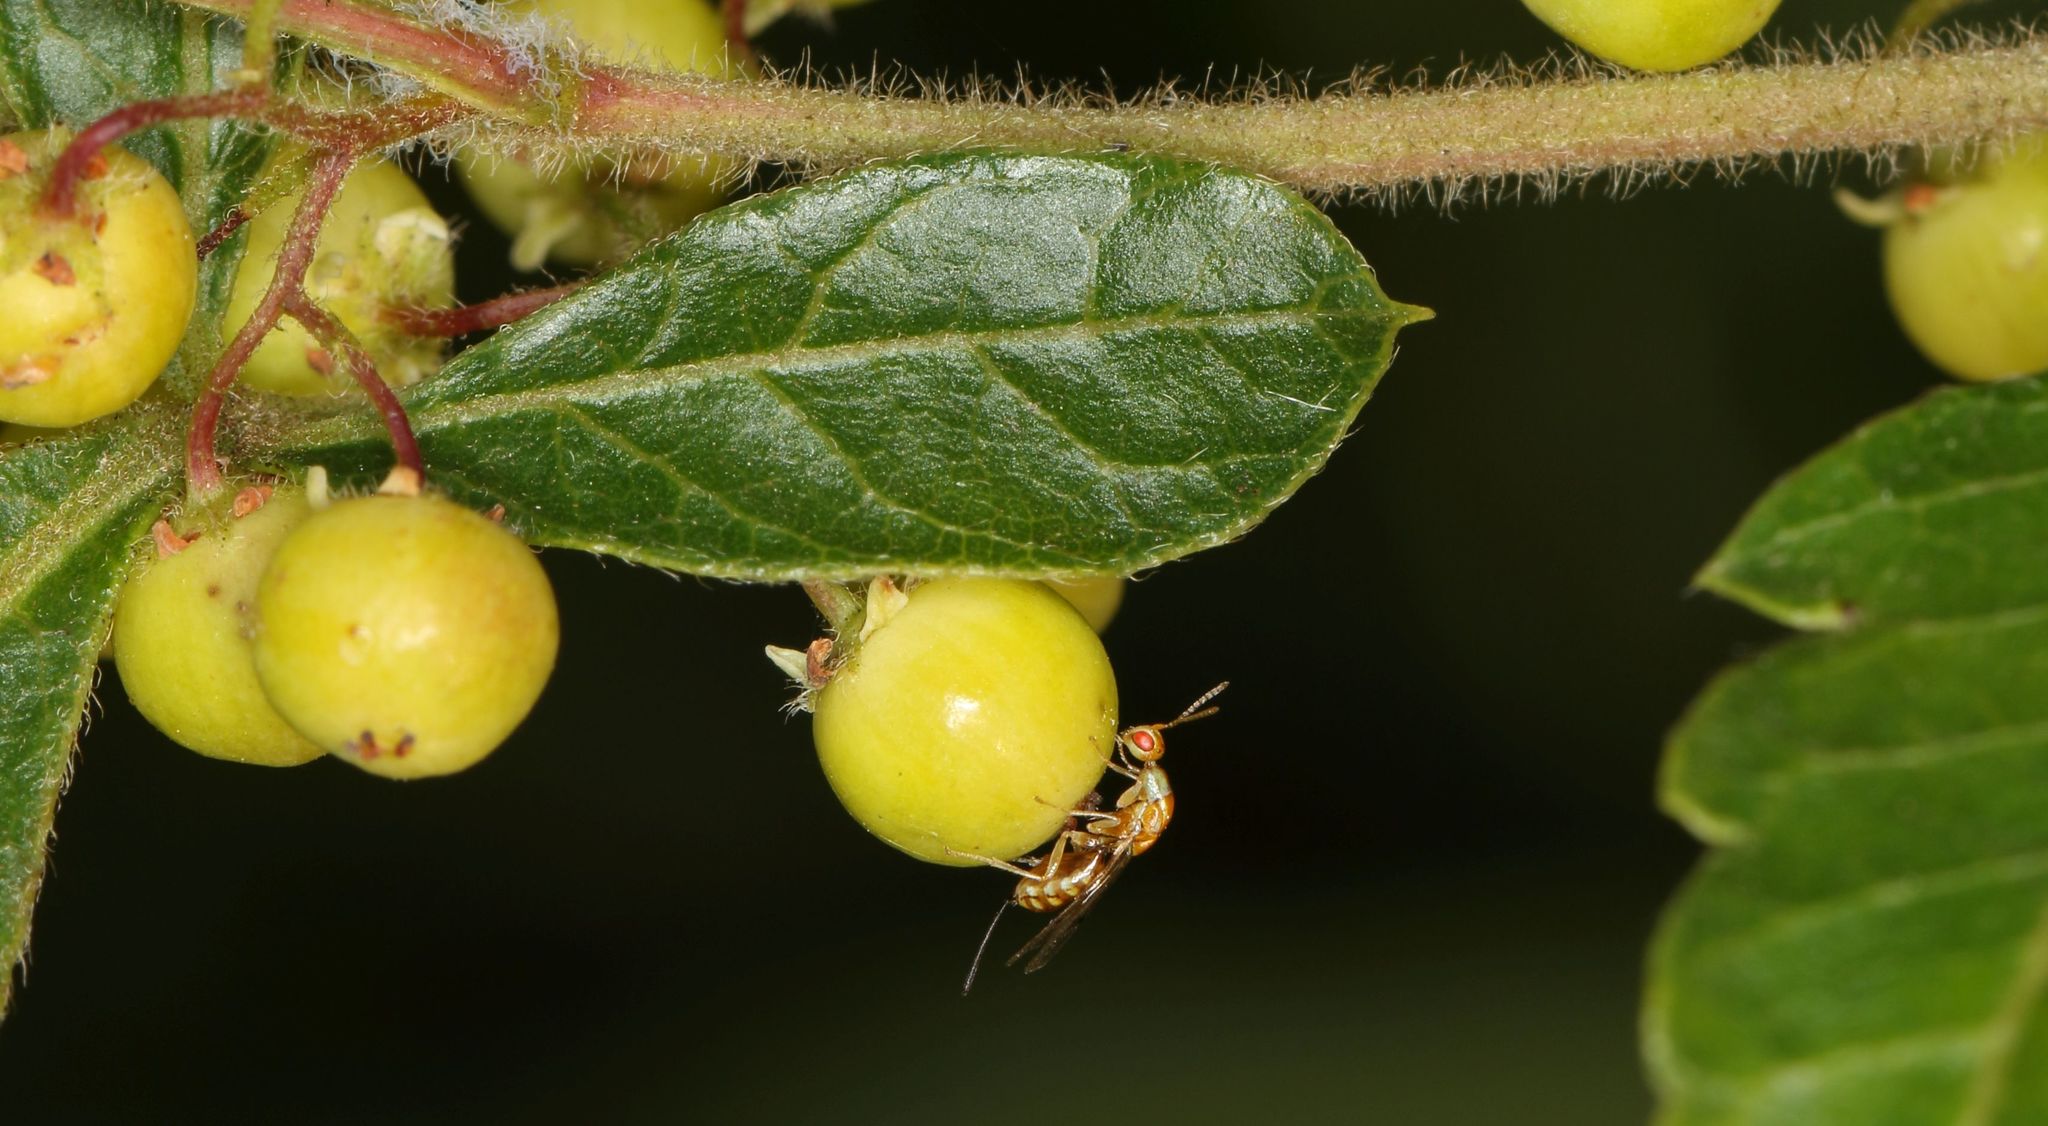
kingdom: Plantae
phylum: Tracheophyta
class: Magnoliopsida
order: Sapindales
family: Anacardiaceae
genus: Searsia
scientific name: Searsia dentata
